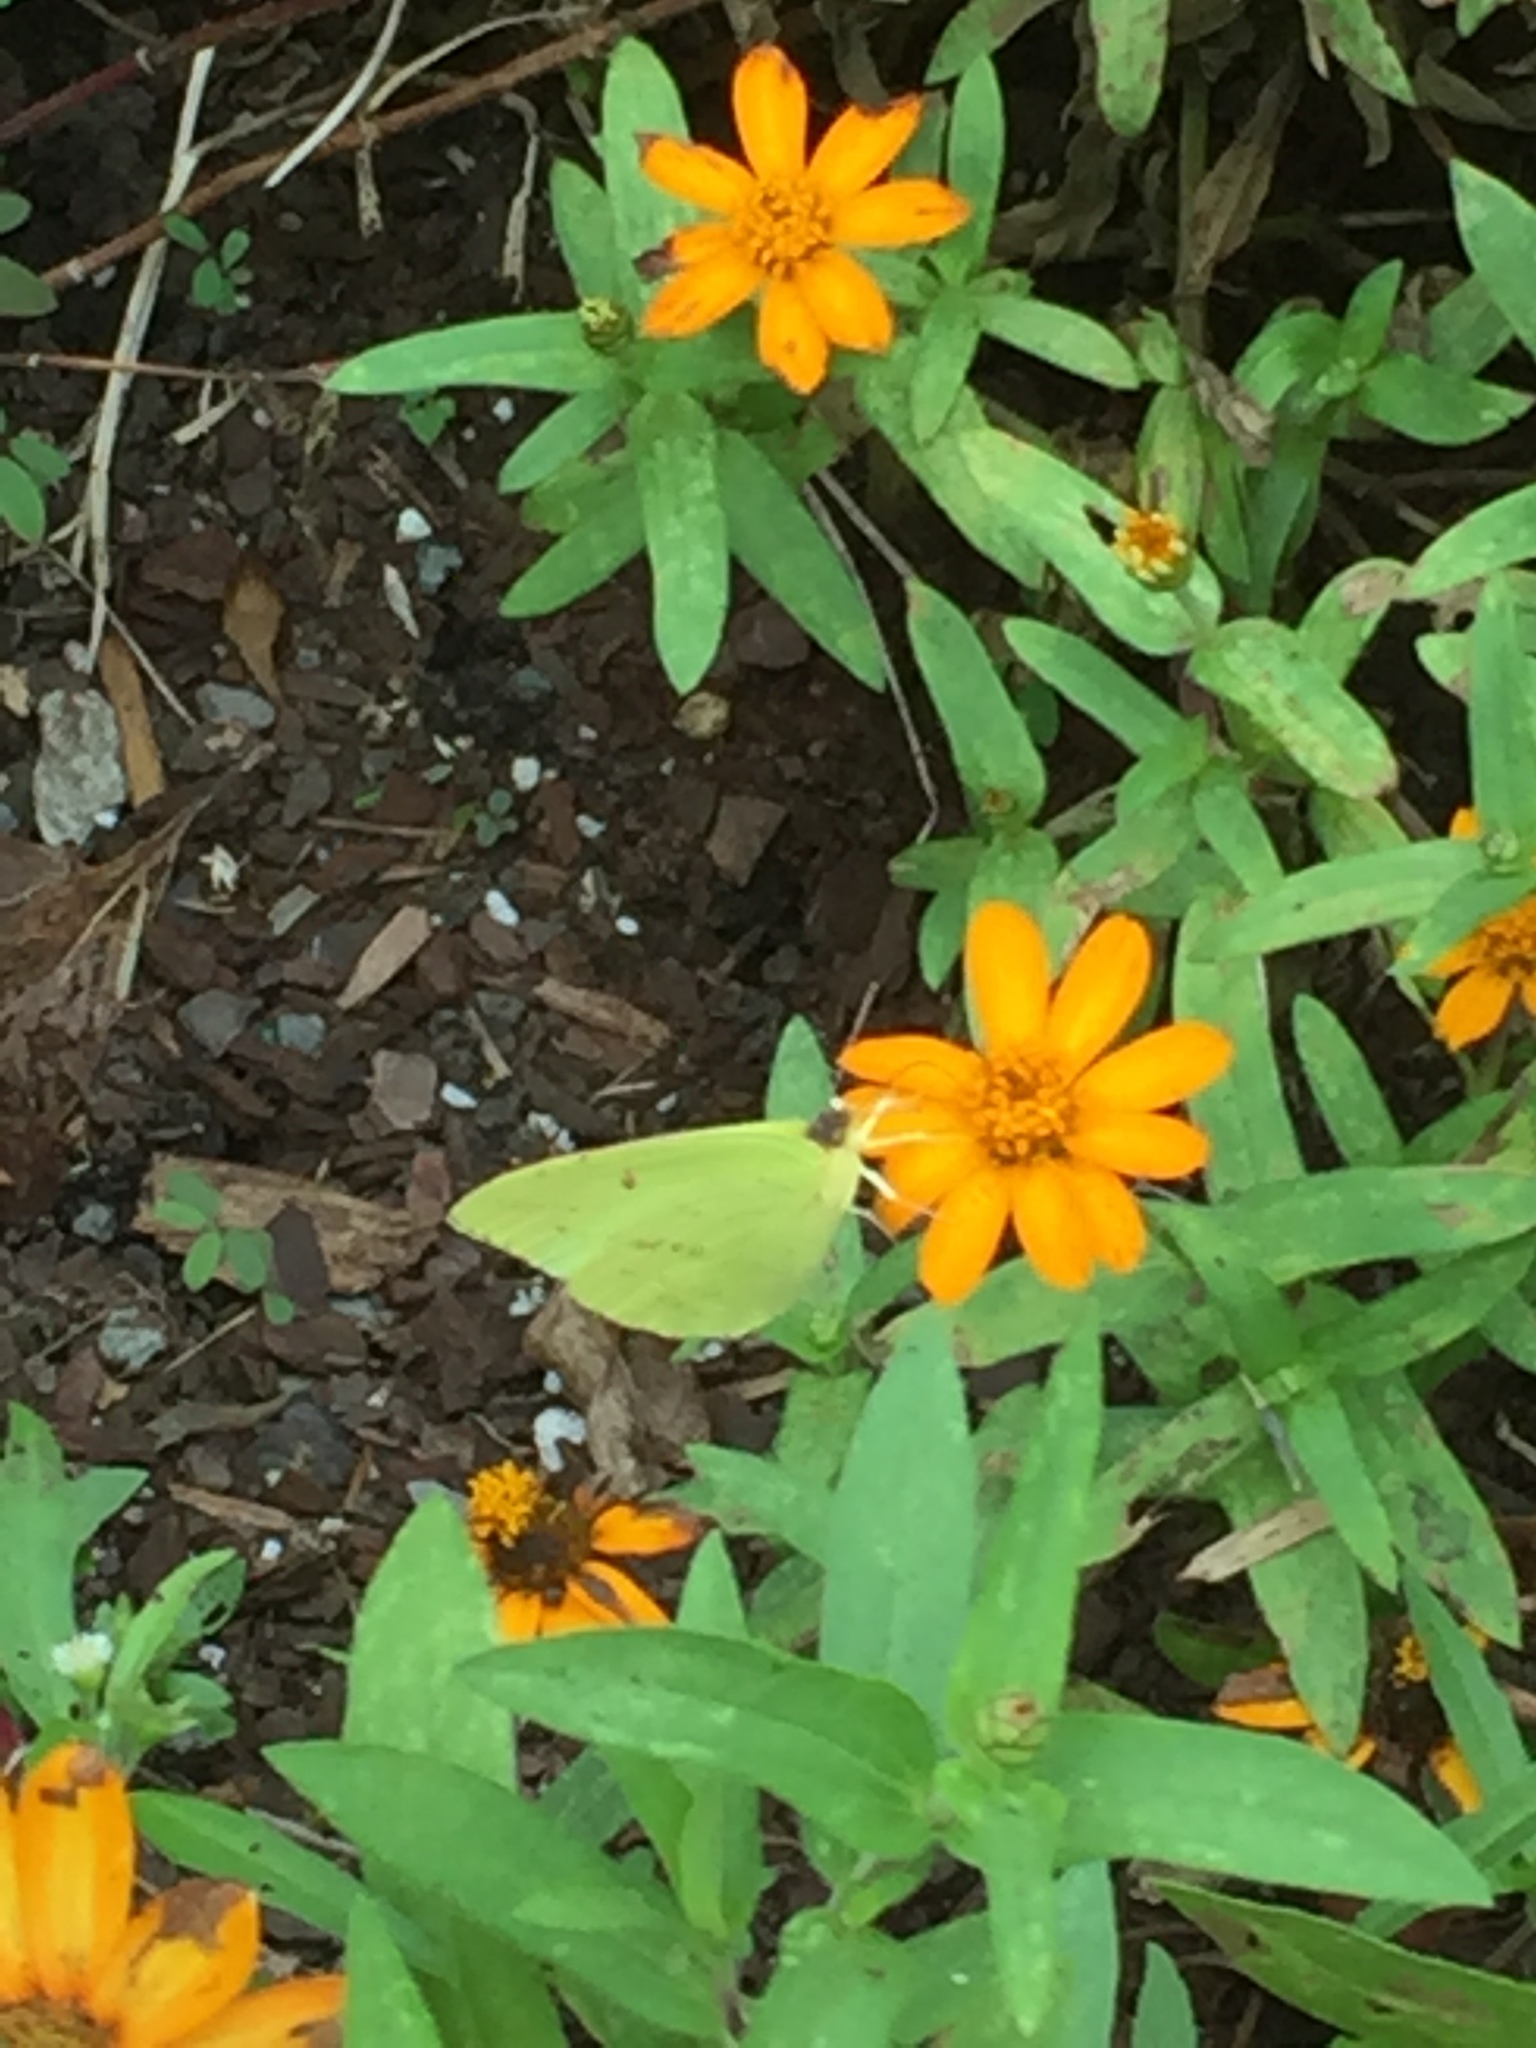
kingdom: Animalia
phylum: Arthropoda
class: Insecta
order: Lepidoptera
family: Pieridae
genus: Phoebis
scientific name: Phoebis sennae
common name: Cloudless sulphur
